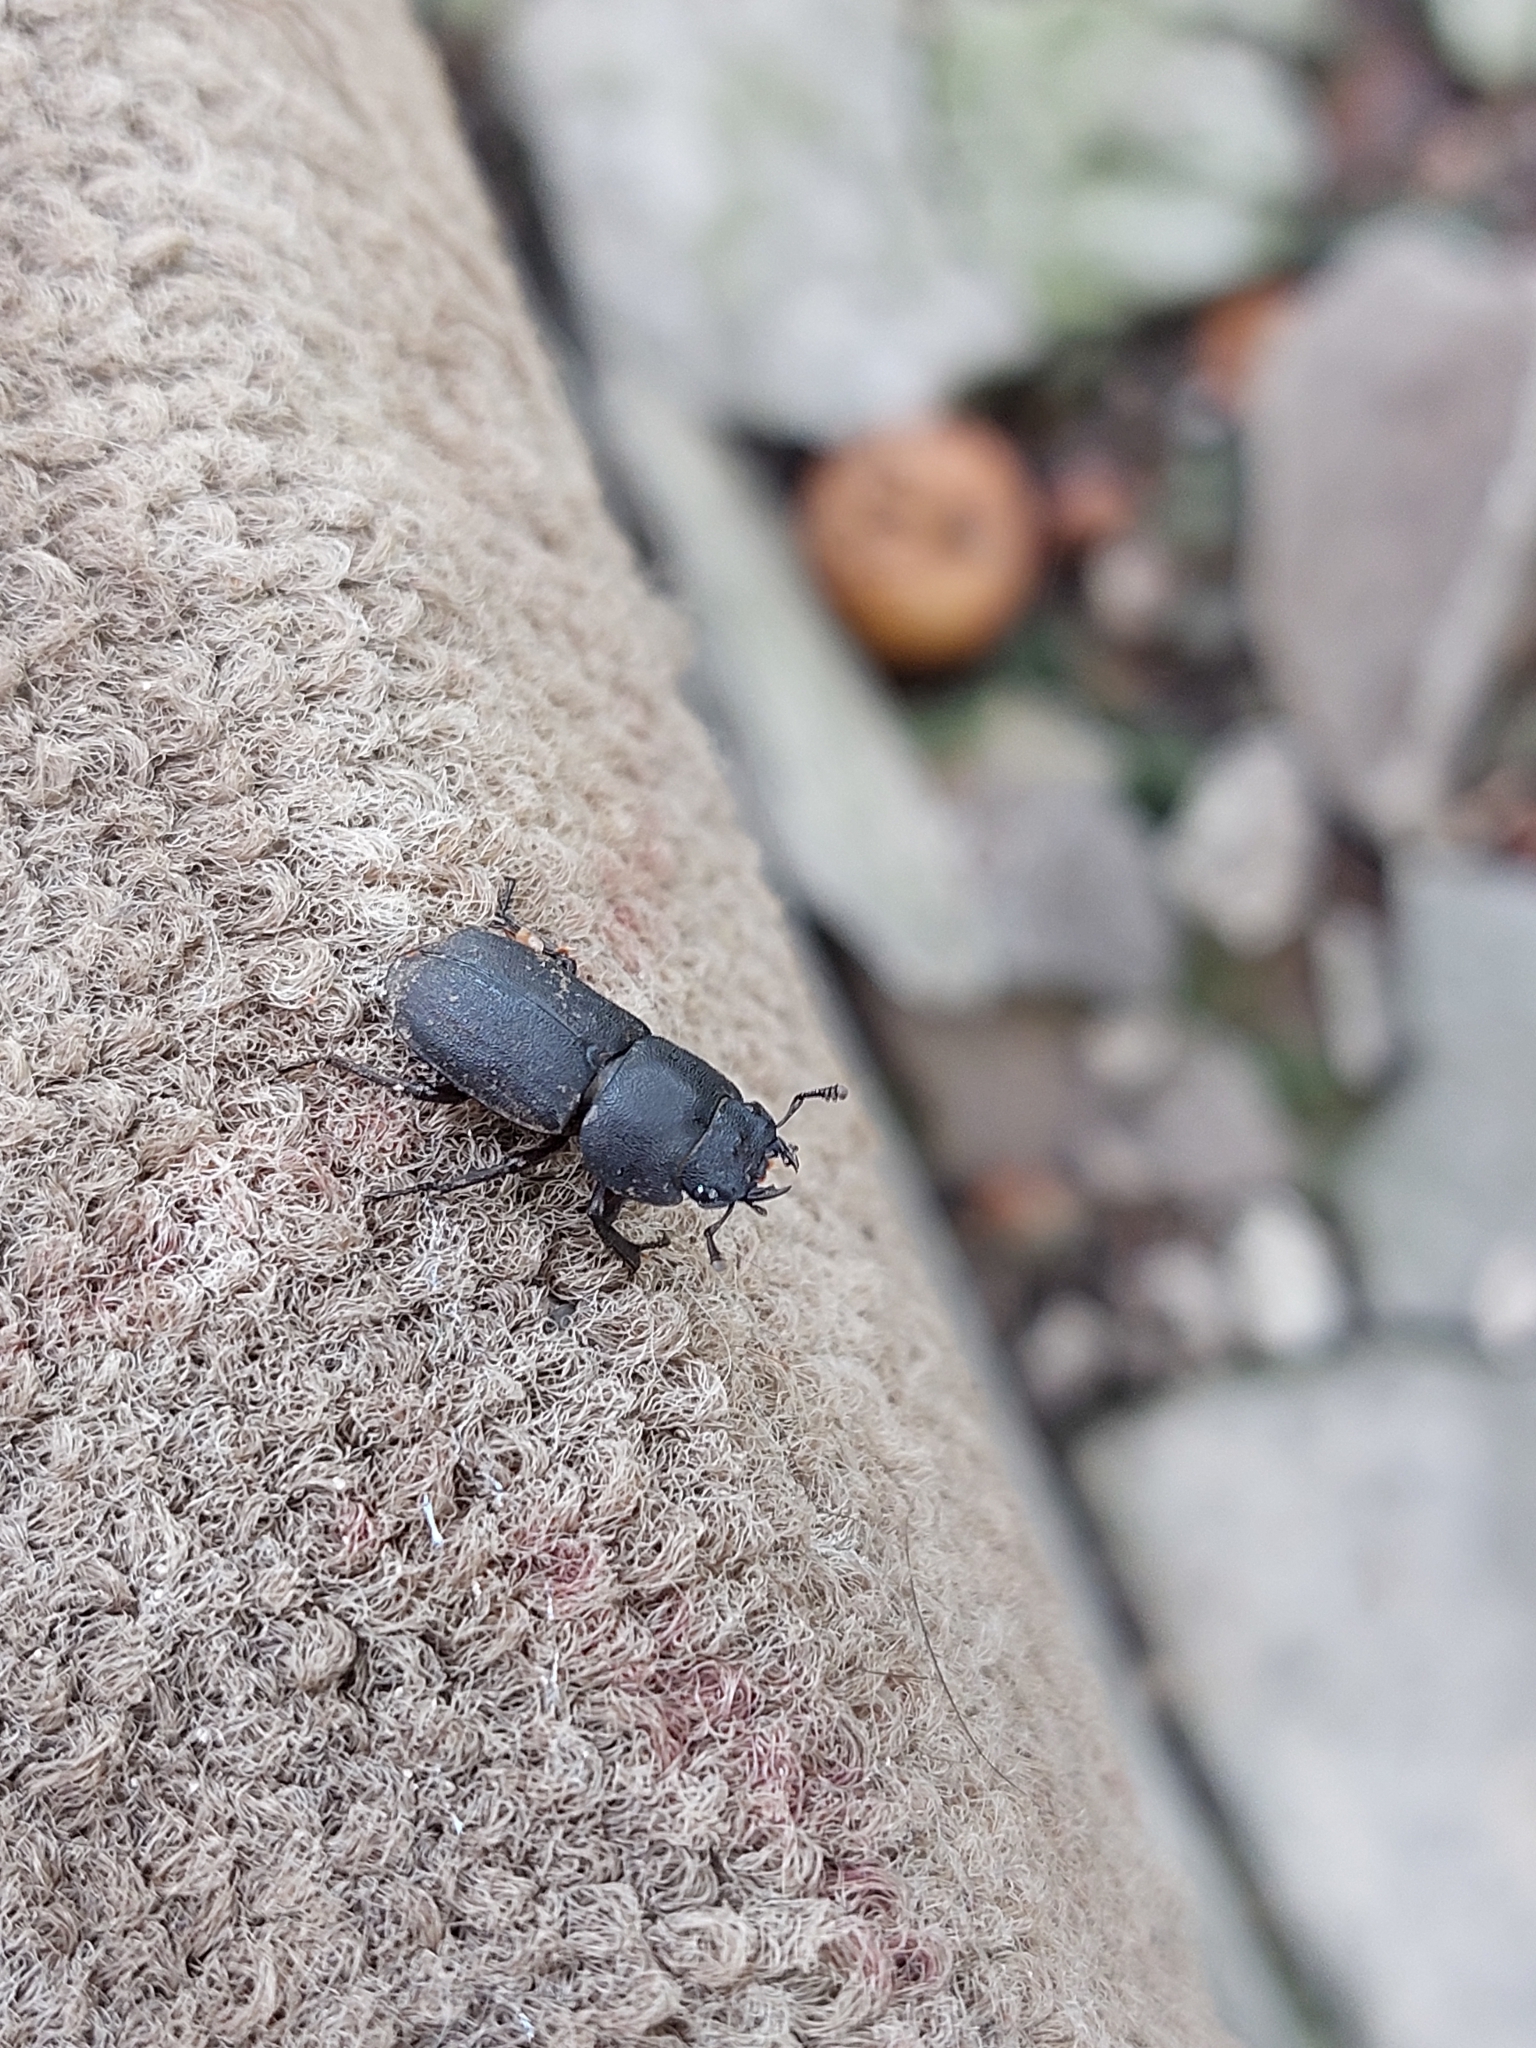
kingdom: Animalia
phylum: Arthropoda
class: Insecta
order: Coleoptera
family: Lucanidae
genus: Dorcus
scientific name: Dorcus parallelipipedus
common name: Lesser stag beetle
